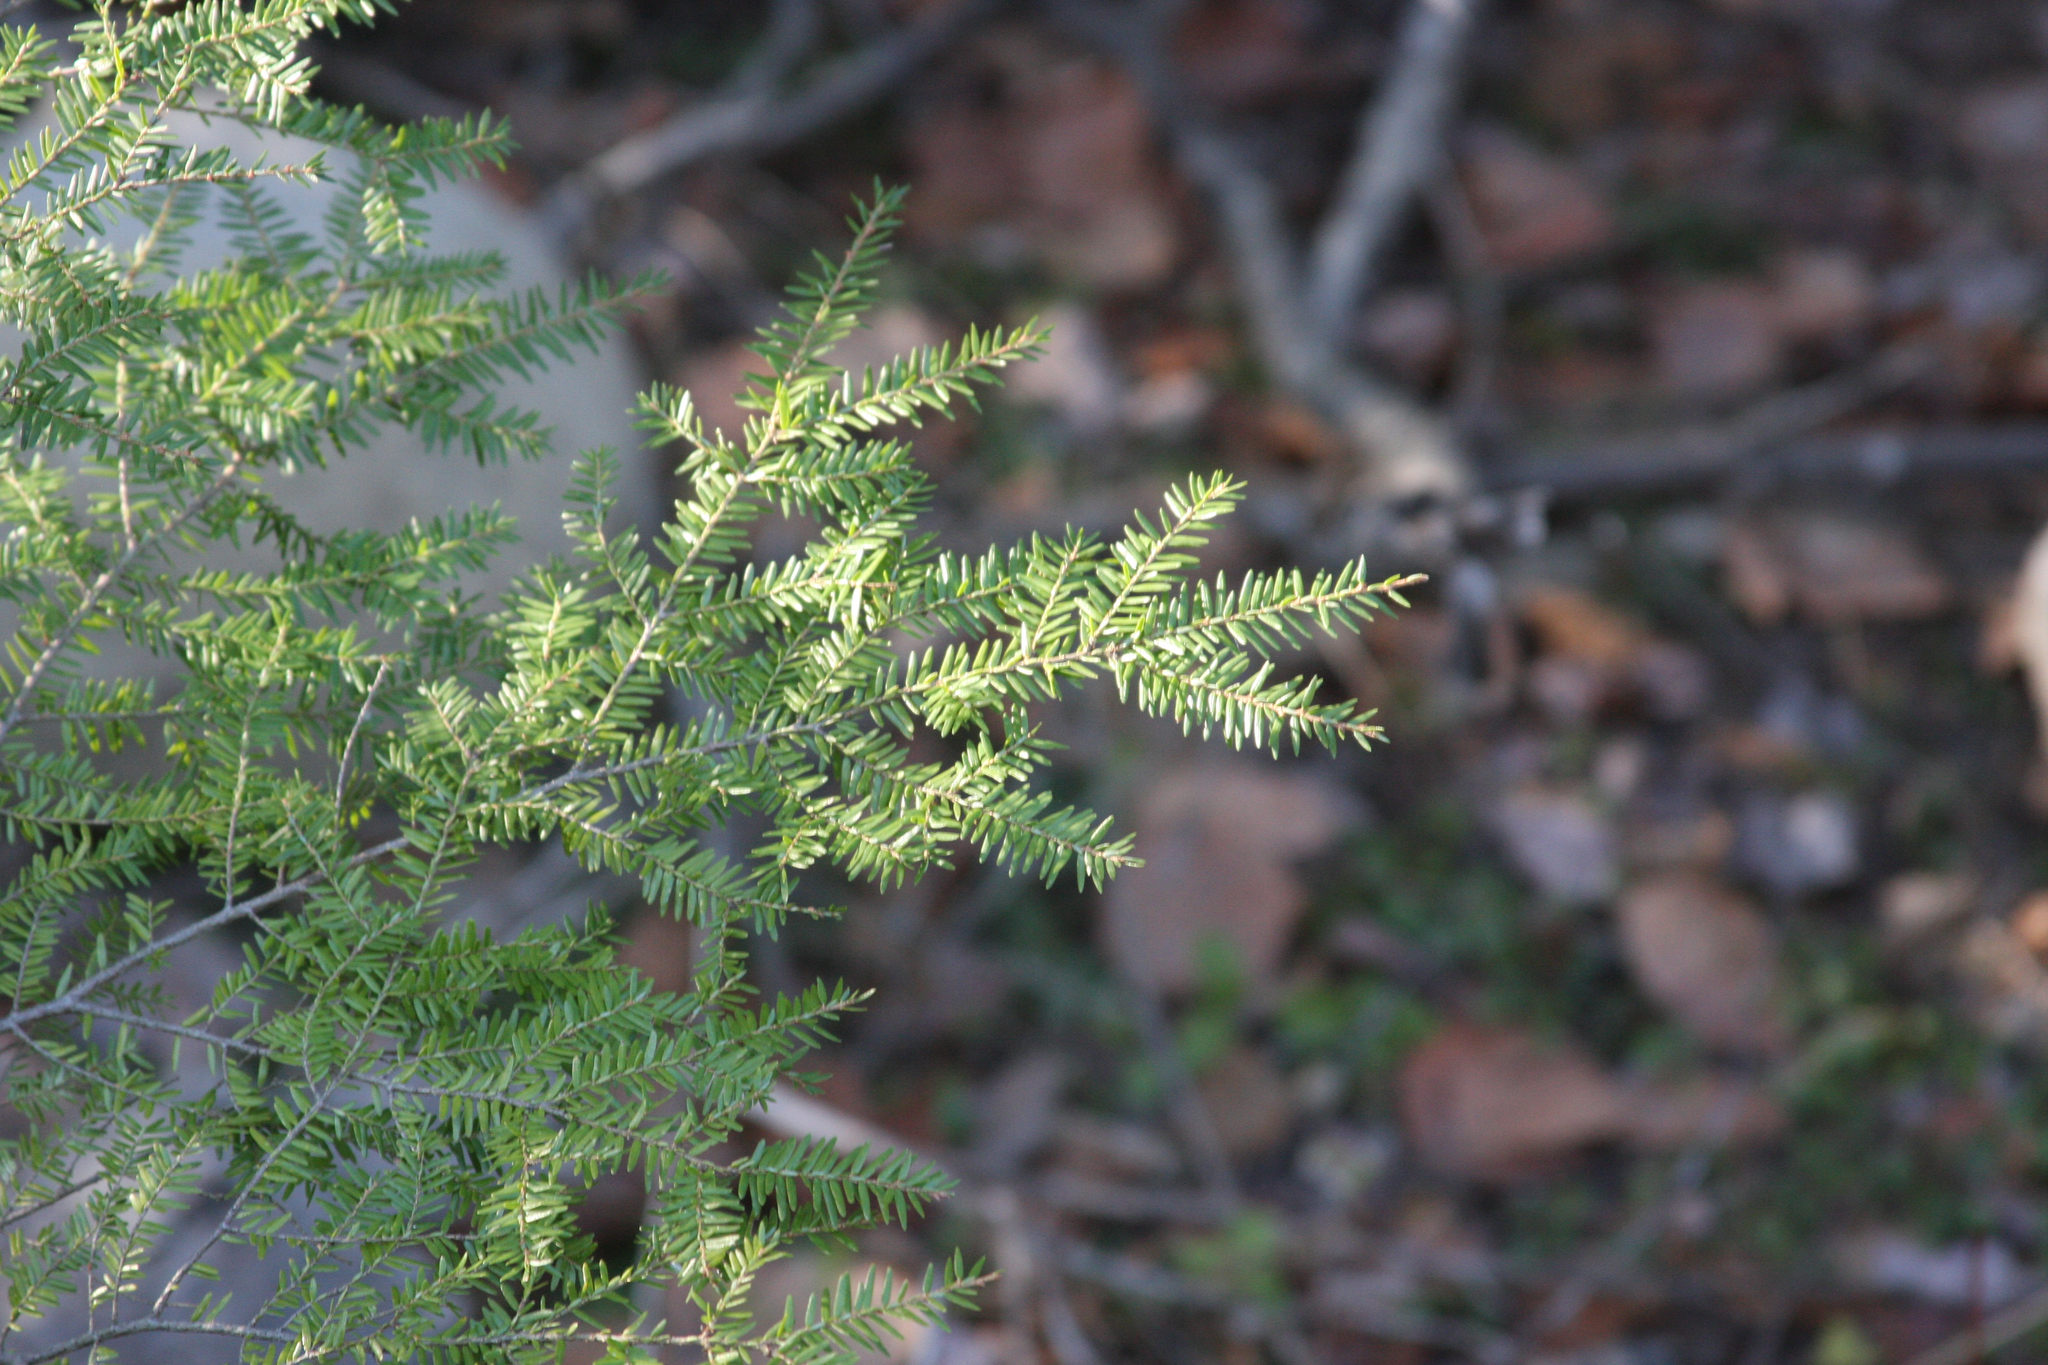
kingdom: Plantae
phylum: Tracheophyta
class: Pinopsida
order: Pinales
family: Pinaceae
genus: Tsuga
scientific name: Tsuga canadensis
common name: Eastern hemlock
